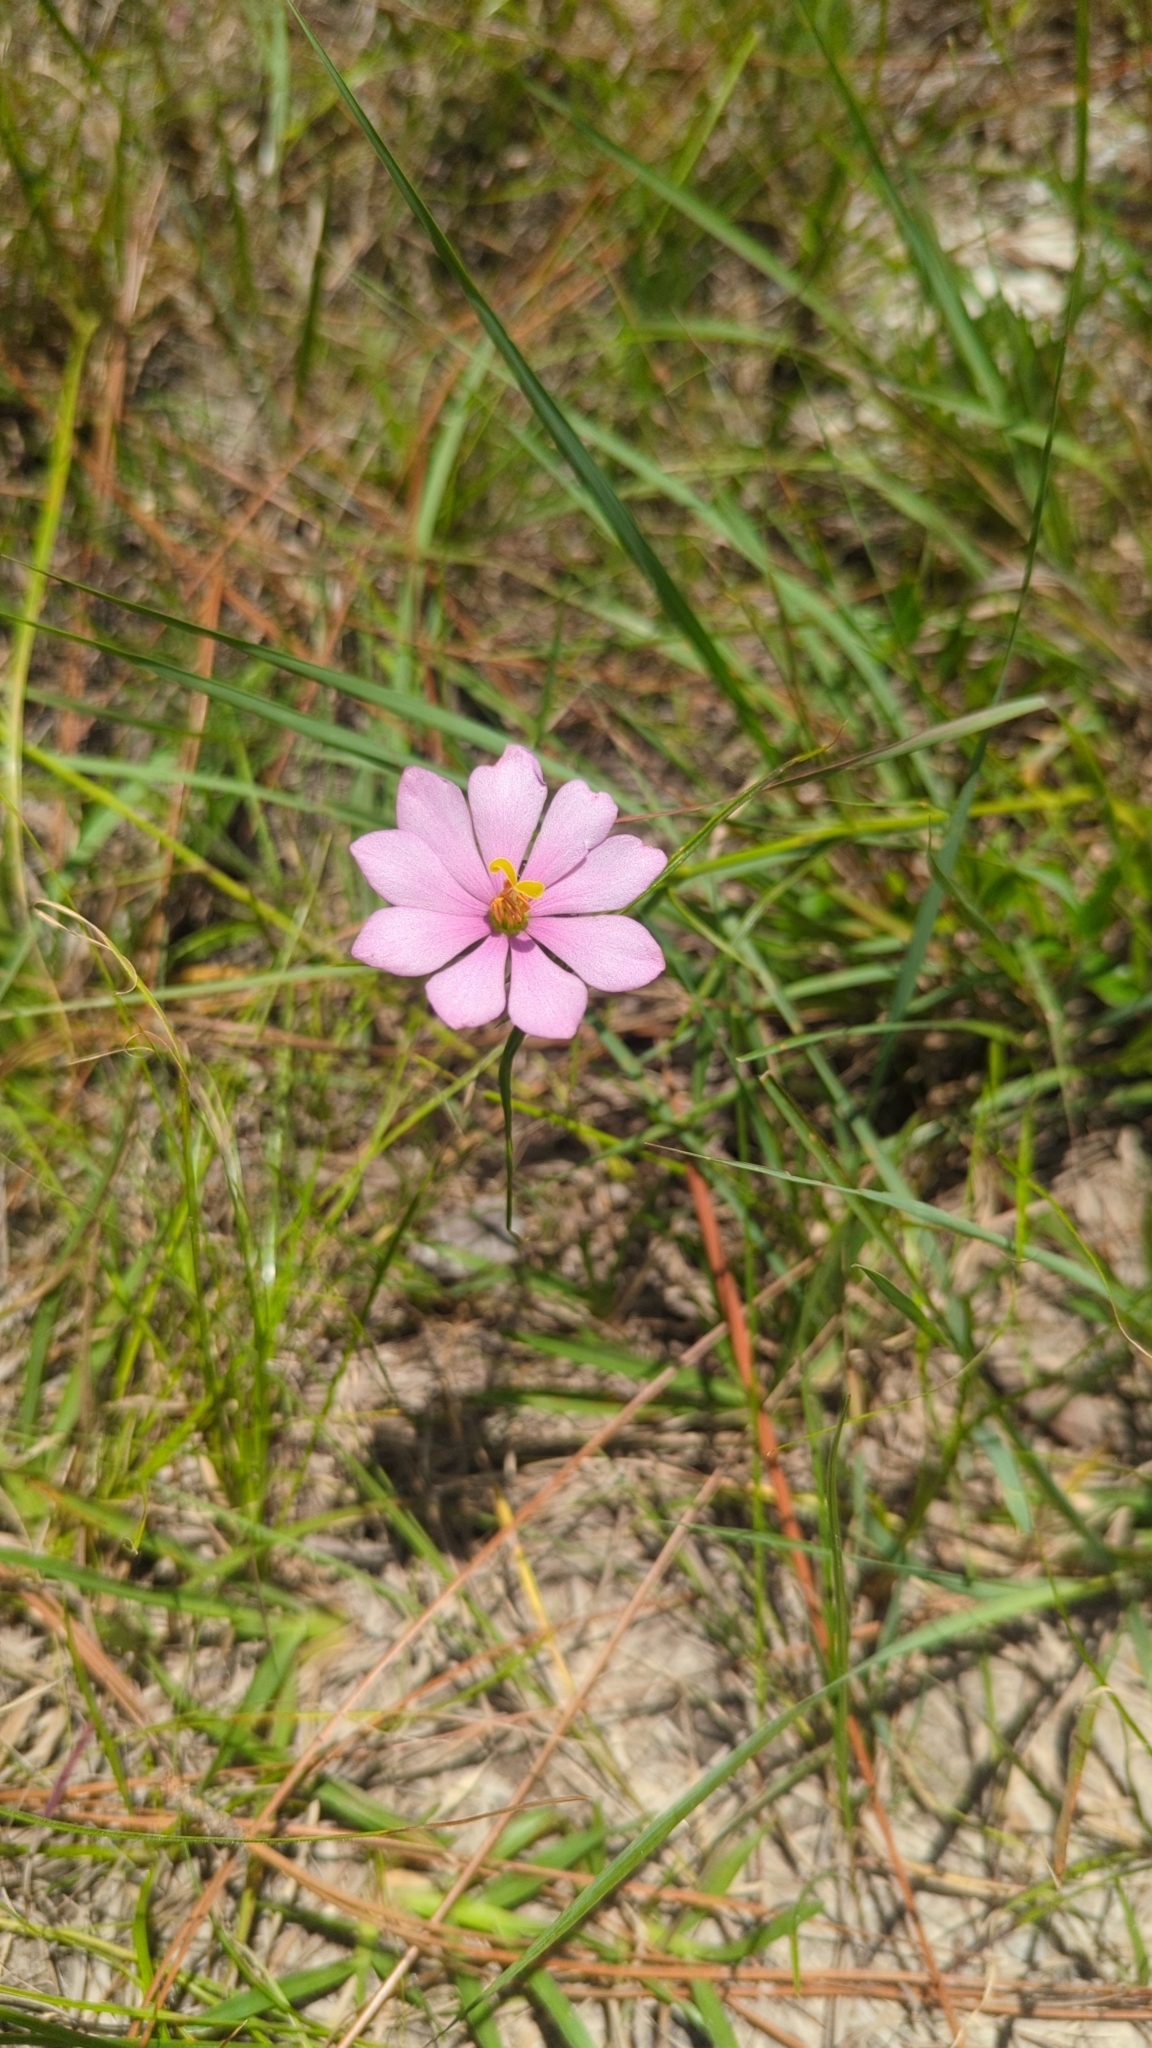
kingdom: Plantae
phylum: Tracheophyta
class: Magnoliopsida
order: Gentianales
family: Gentianaceae
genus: Sabatia
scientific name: Sabatia gentianoides
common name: Pinewoods rose-gentian
